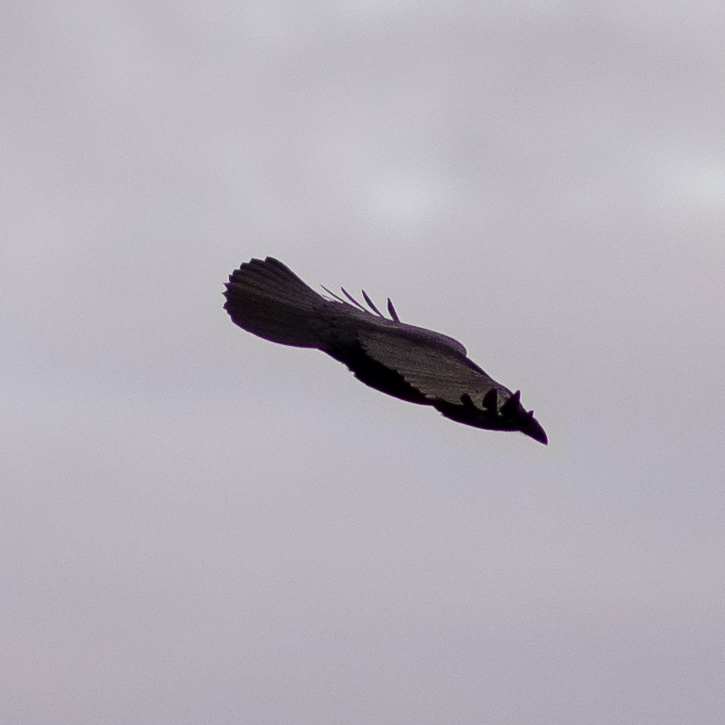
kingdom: Animalia
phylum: Chordata
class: Aves
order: Passeriformes
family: Corvidae
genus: Corvus
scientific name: Corvus corone
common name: Carrion crow
